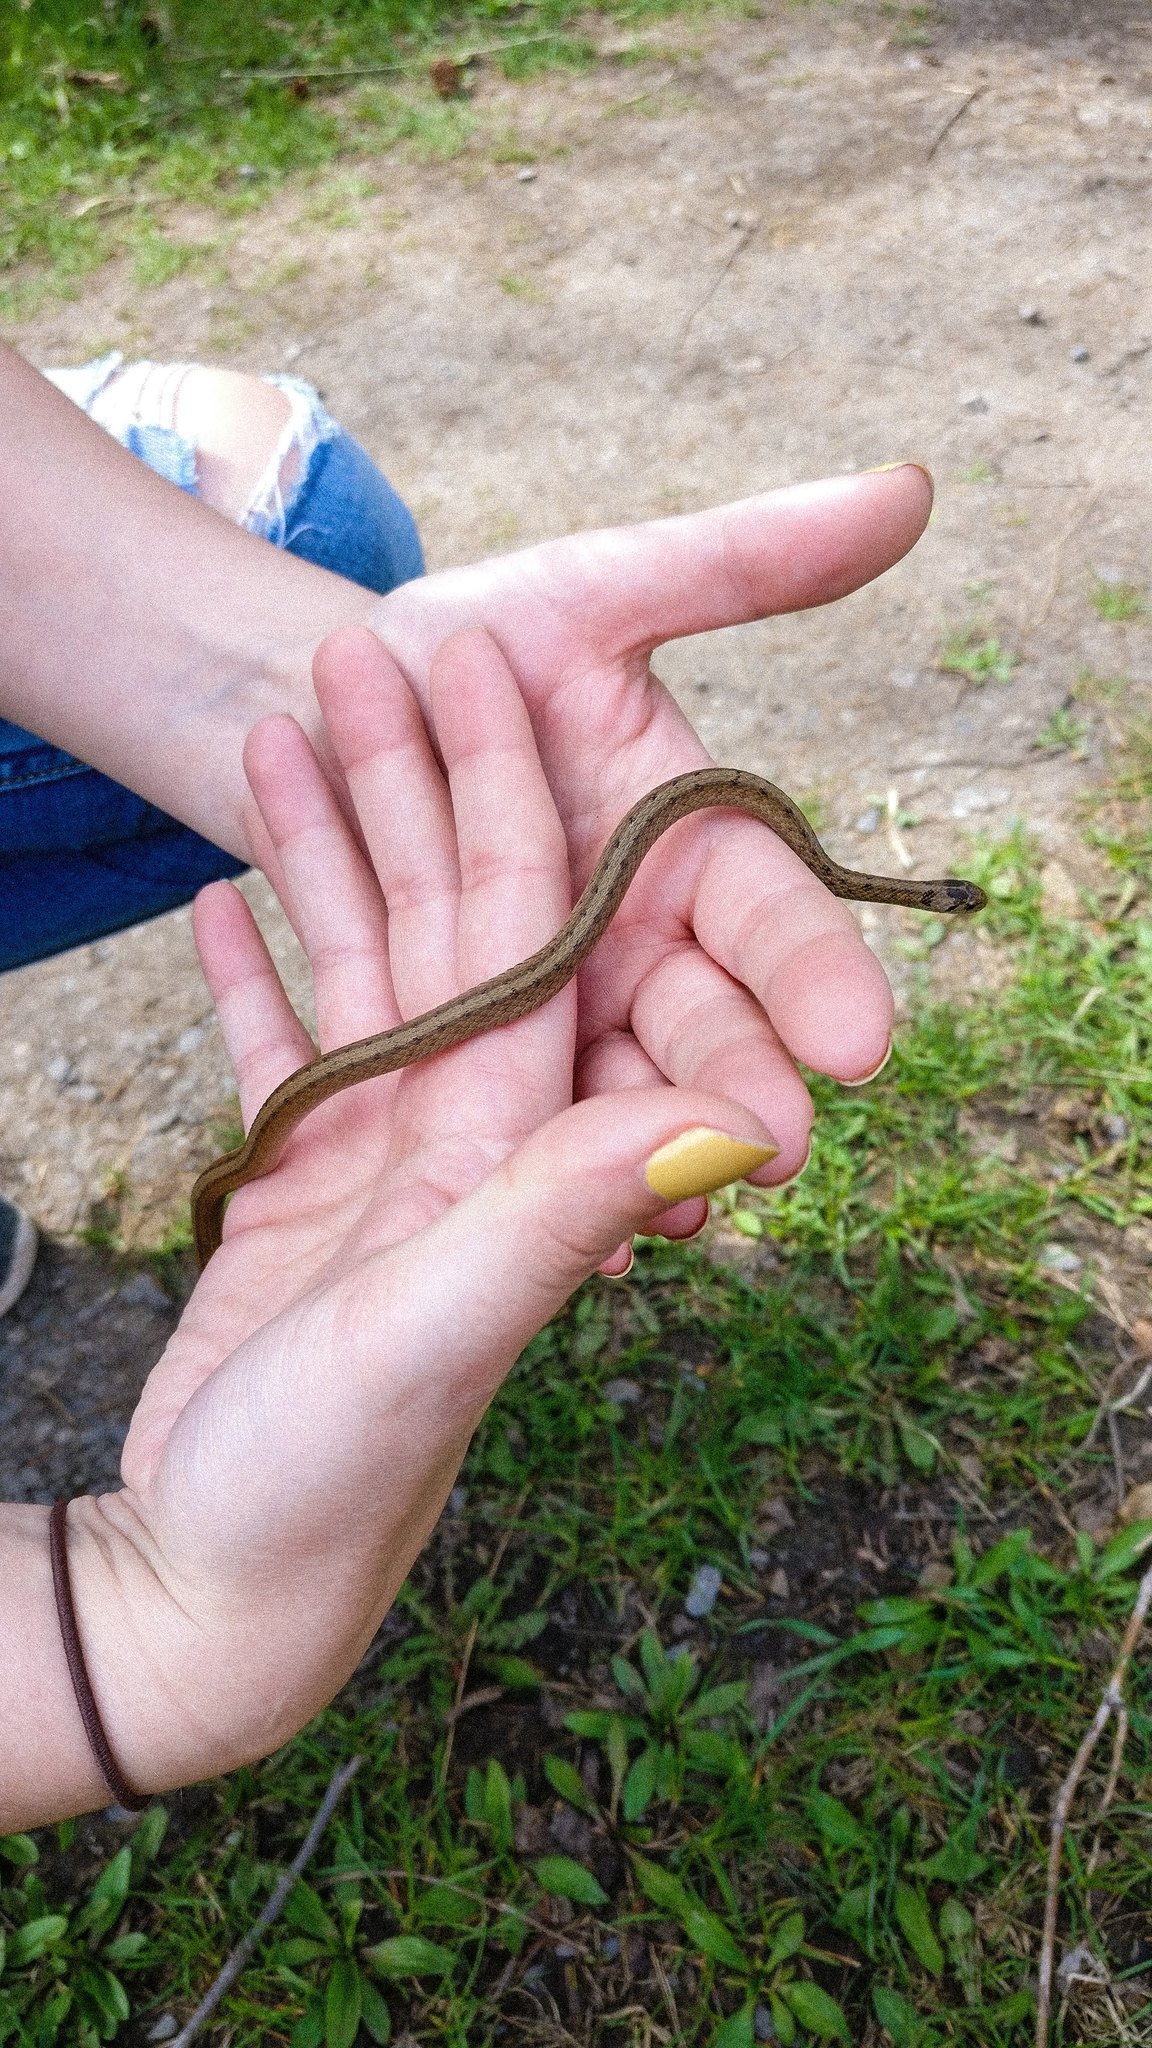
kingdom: Animalia
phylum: Chordata
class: Squamata
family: Colubridae
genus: Storeria
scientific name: Storeria dekayi
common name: (dekay’s) brown snake
